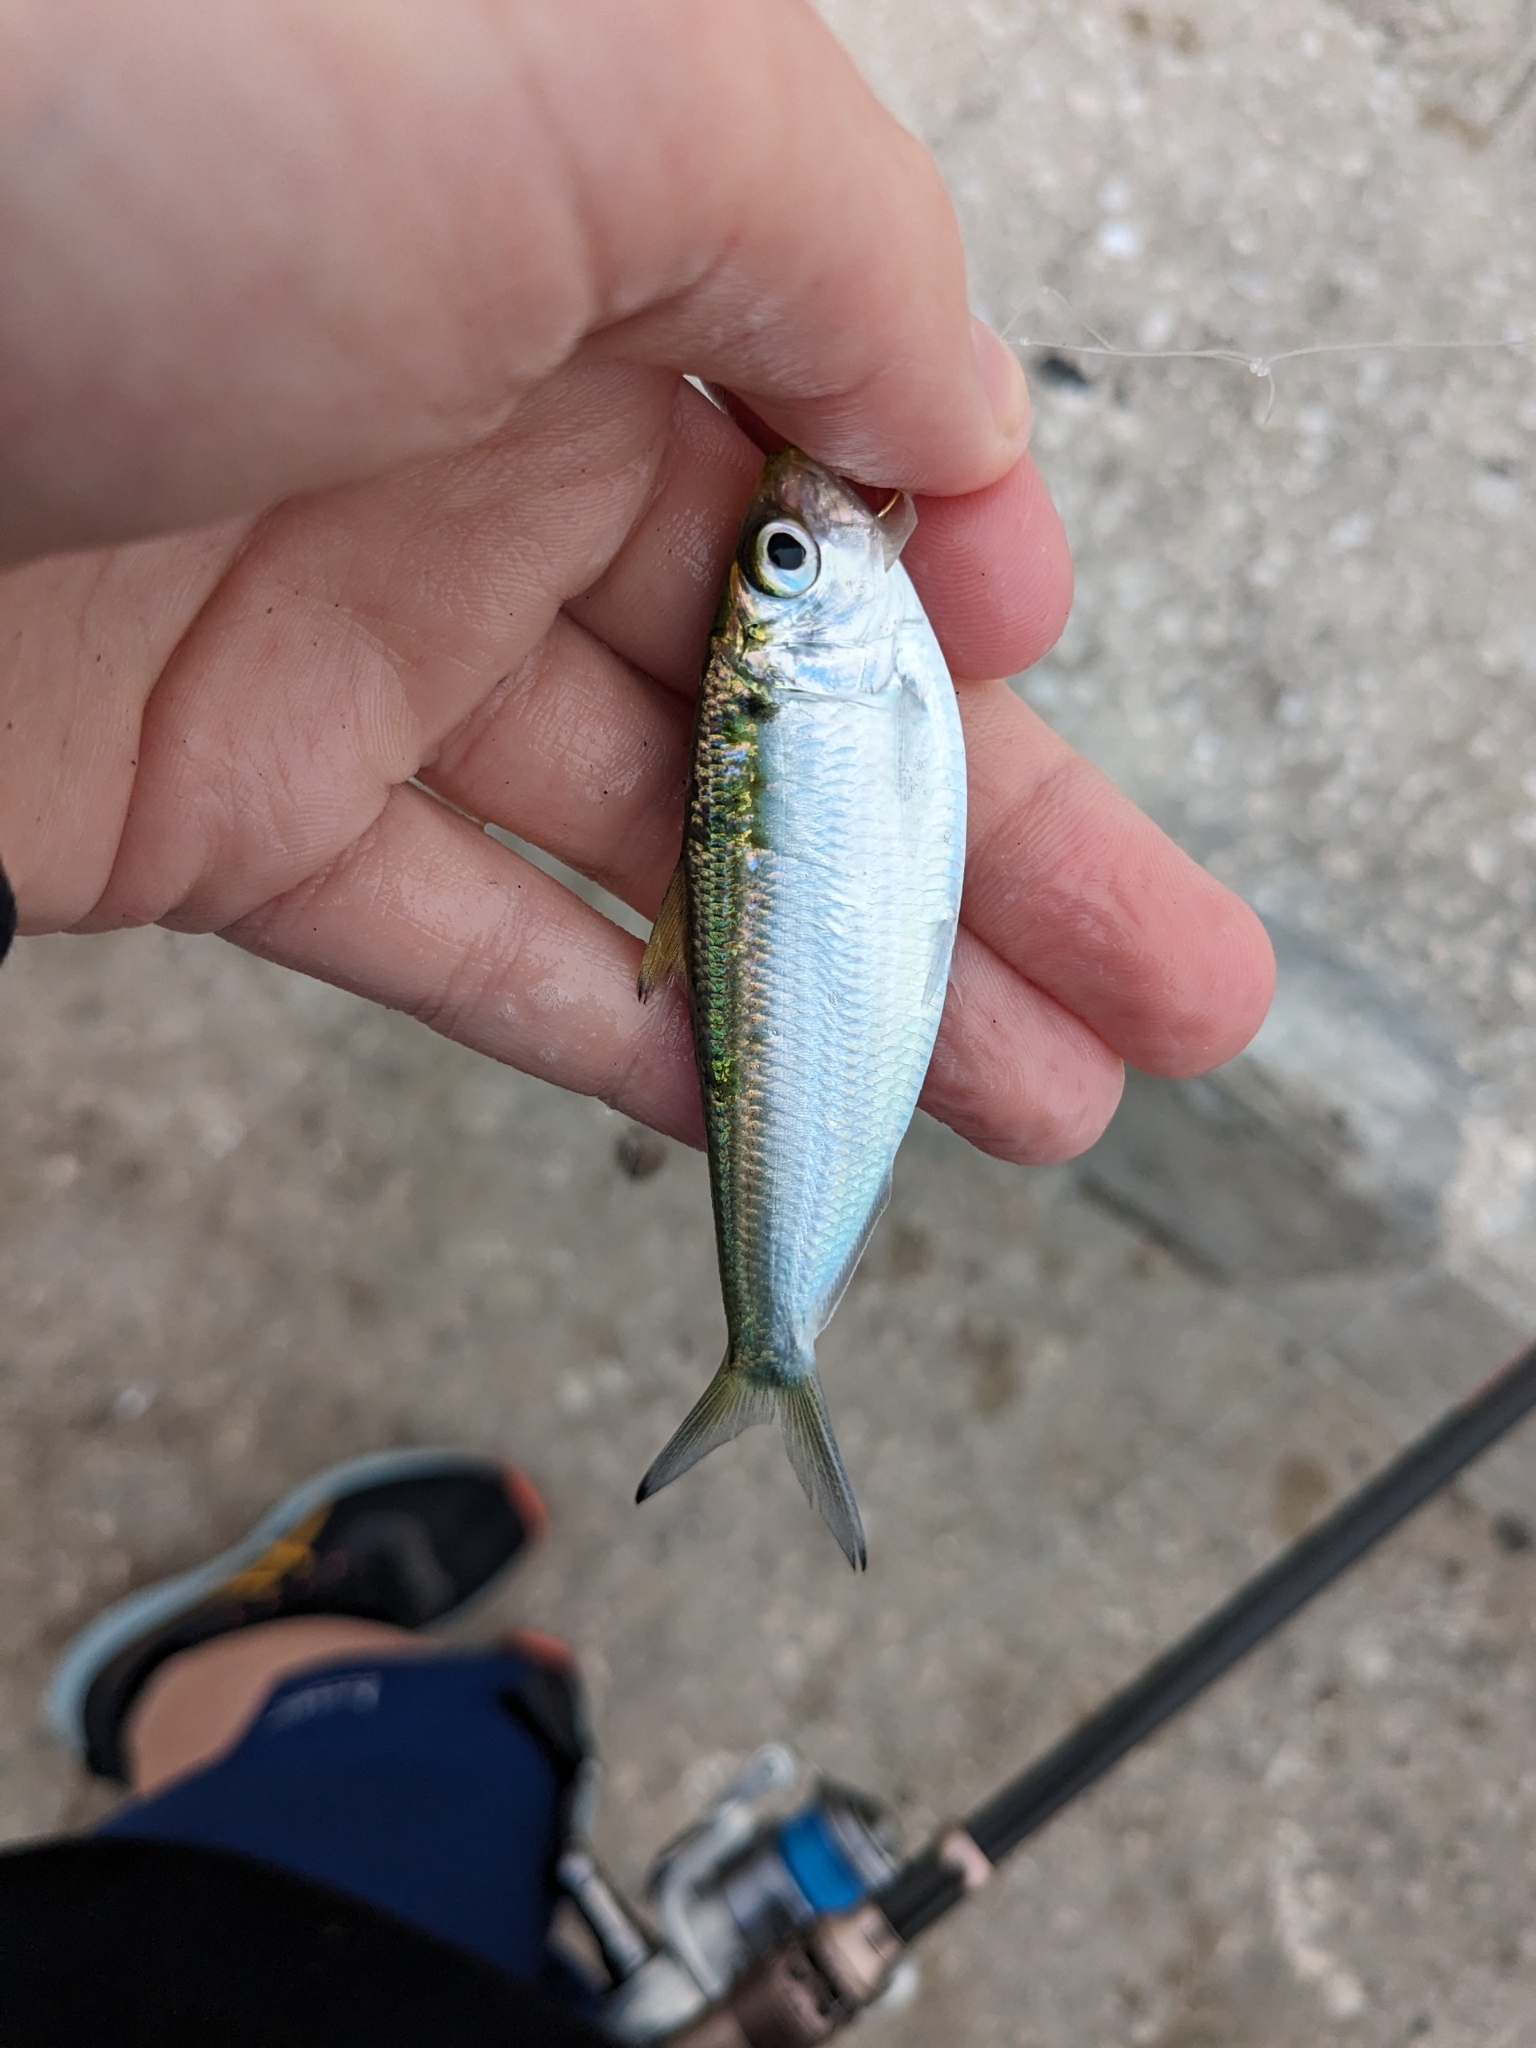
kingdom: Animalia
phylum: Chordata
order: Clupeiformes
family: Clupeidae
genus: Opisthonema
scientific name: Opisthonema oglinum
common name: Thread herring
